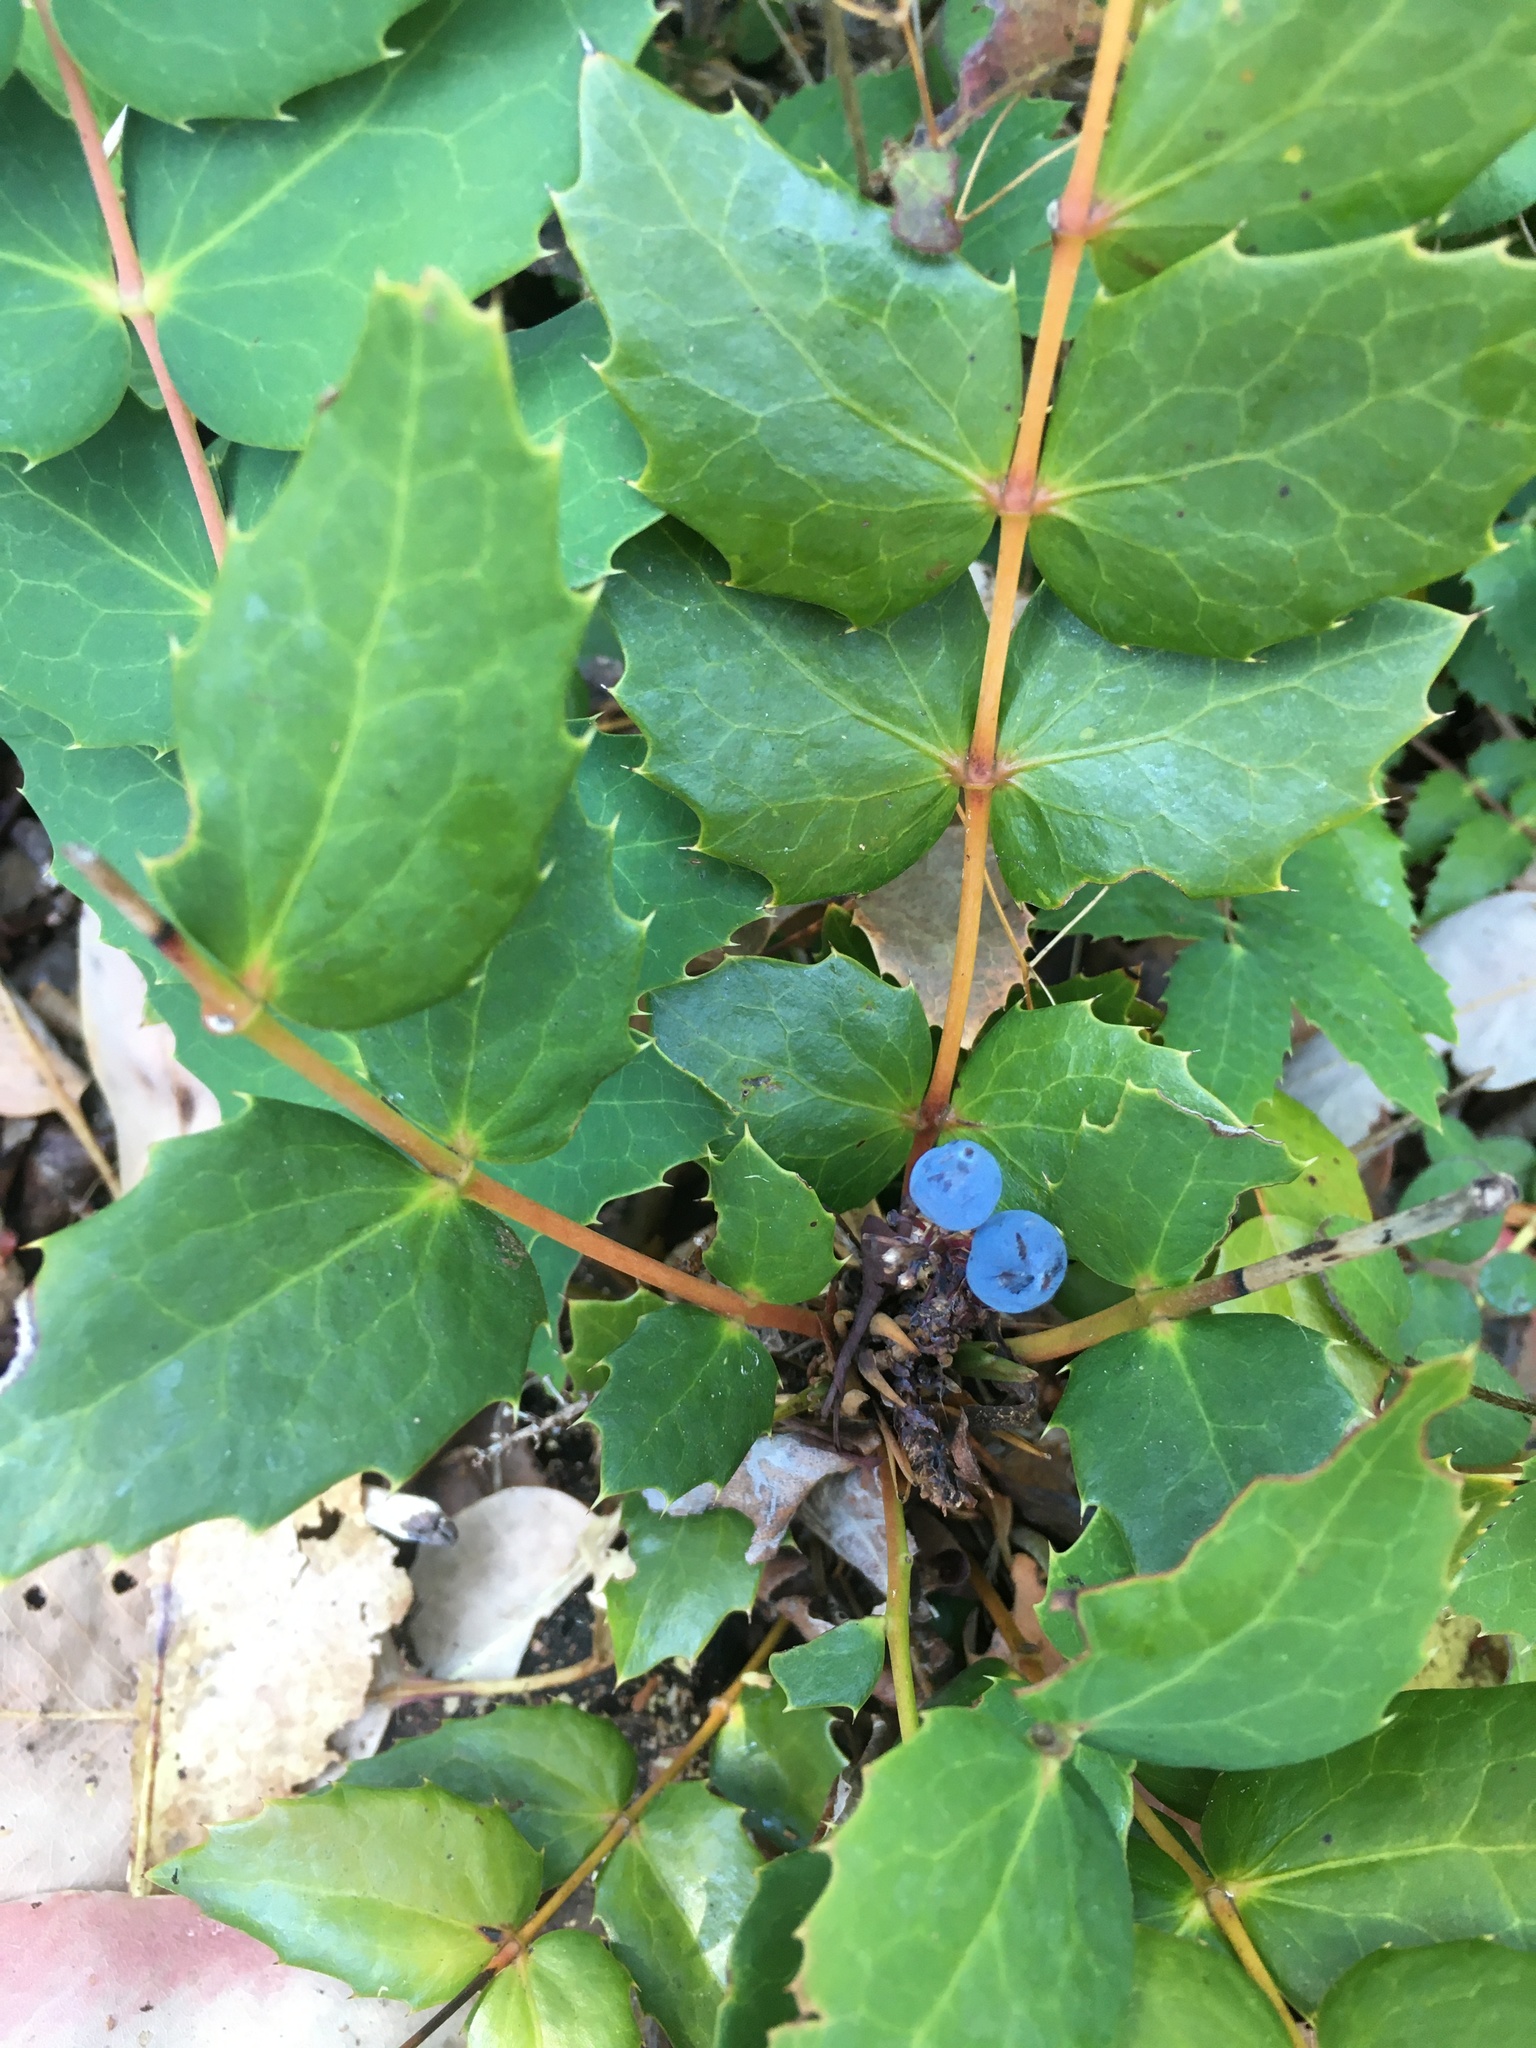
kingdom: Plantae
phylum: Tracheophyta
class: Magnoliopsida
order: Ranunculales
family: Berberidaceae
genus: Mahonia
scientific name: Mahonia nervosa
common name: Cascade oregon-grape
